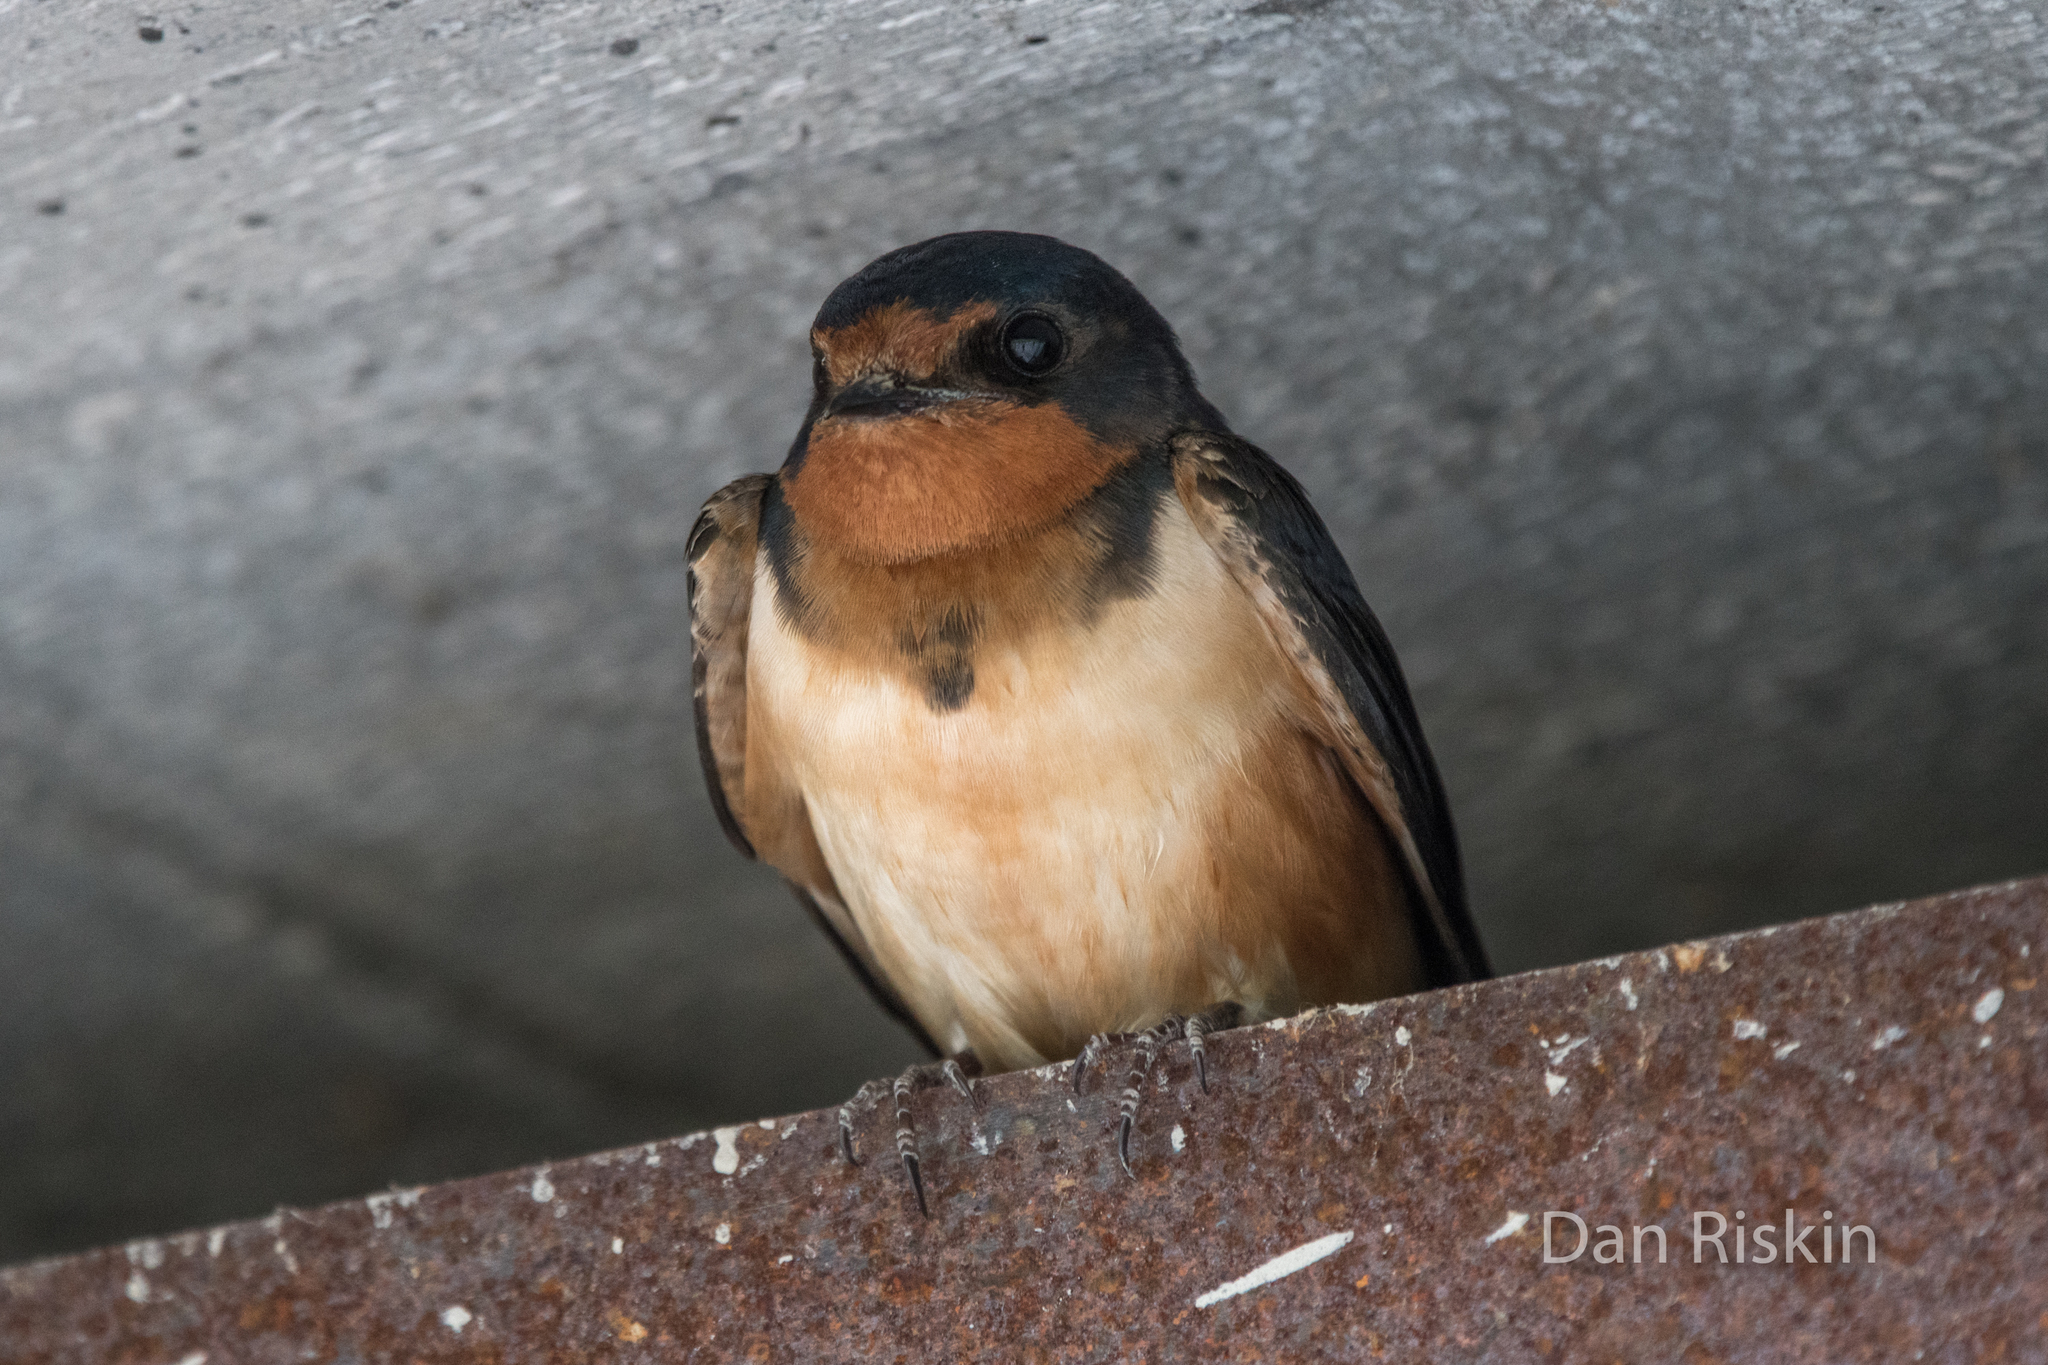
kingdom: Animalia
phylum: Chordata
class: Aves
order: Passeriformes
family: Hirundinidae
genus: Hirundo
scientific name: Hirundo rustica
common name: Barn swallow
